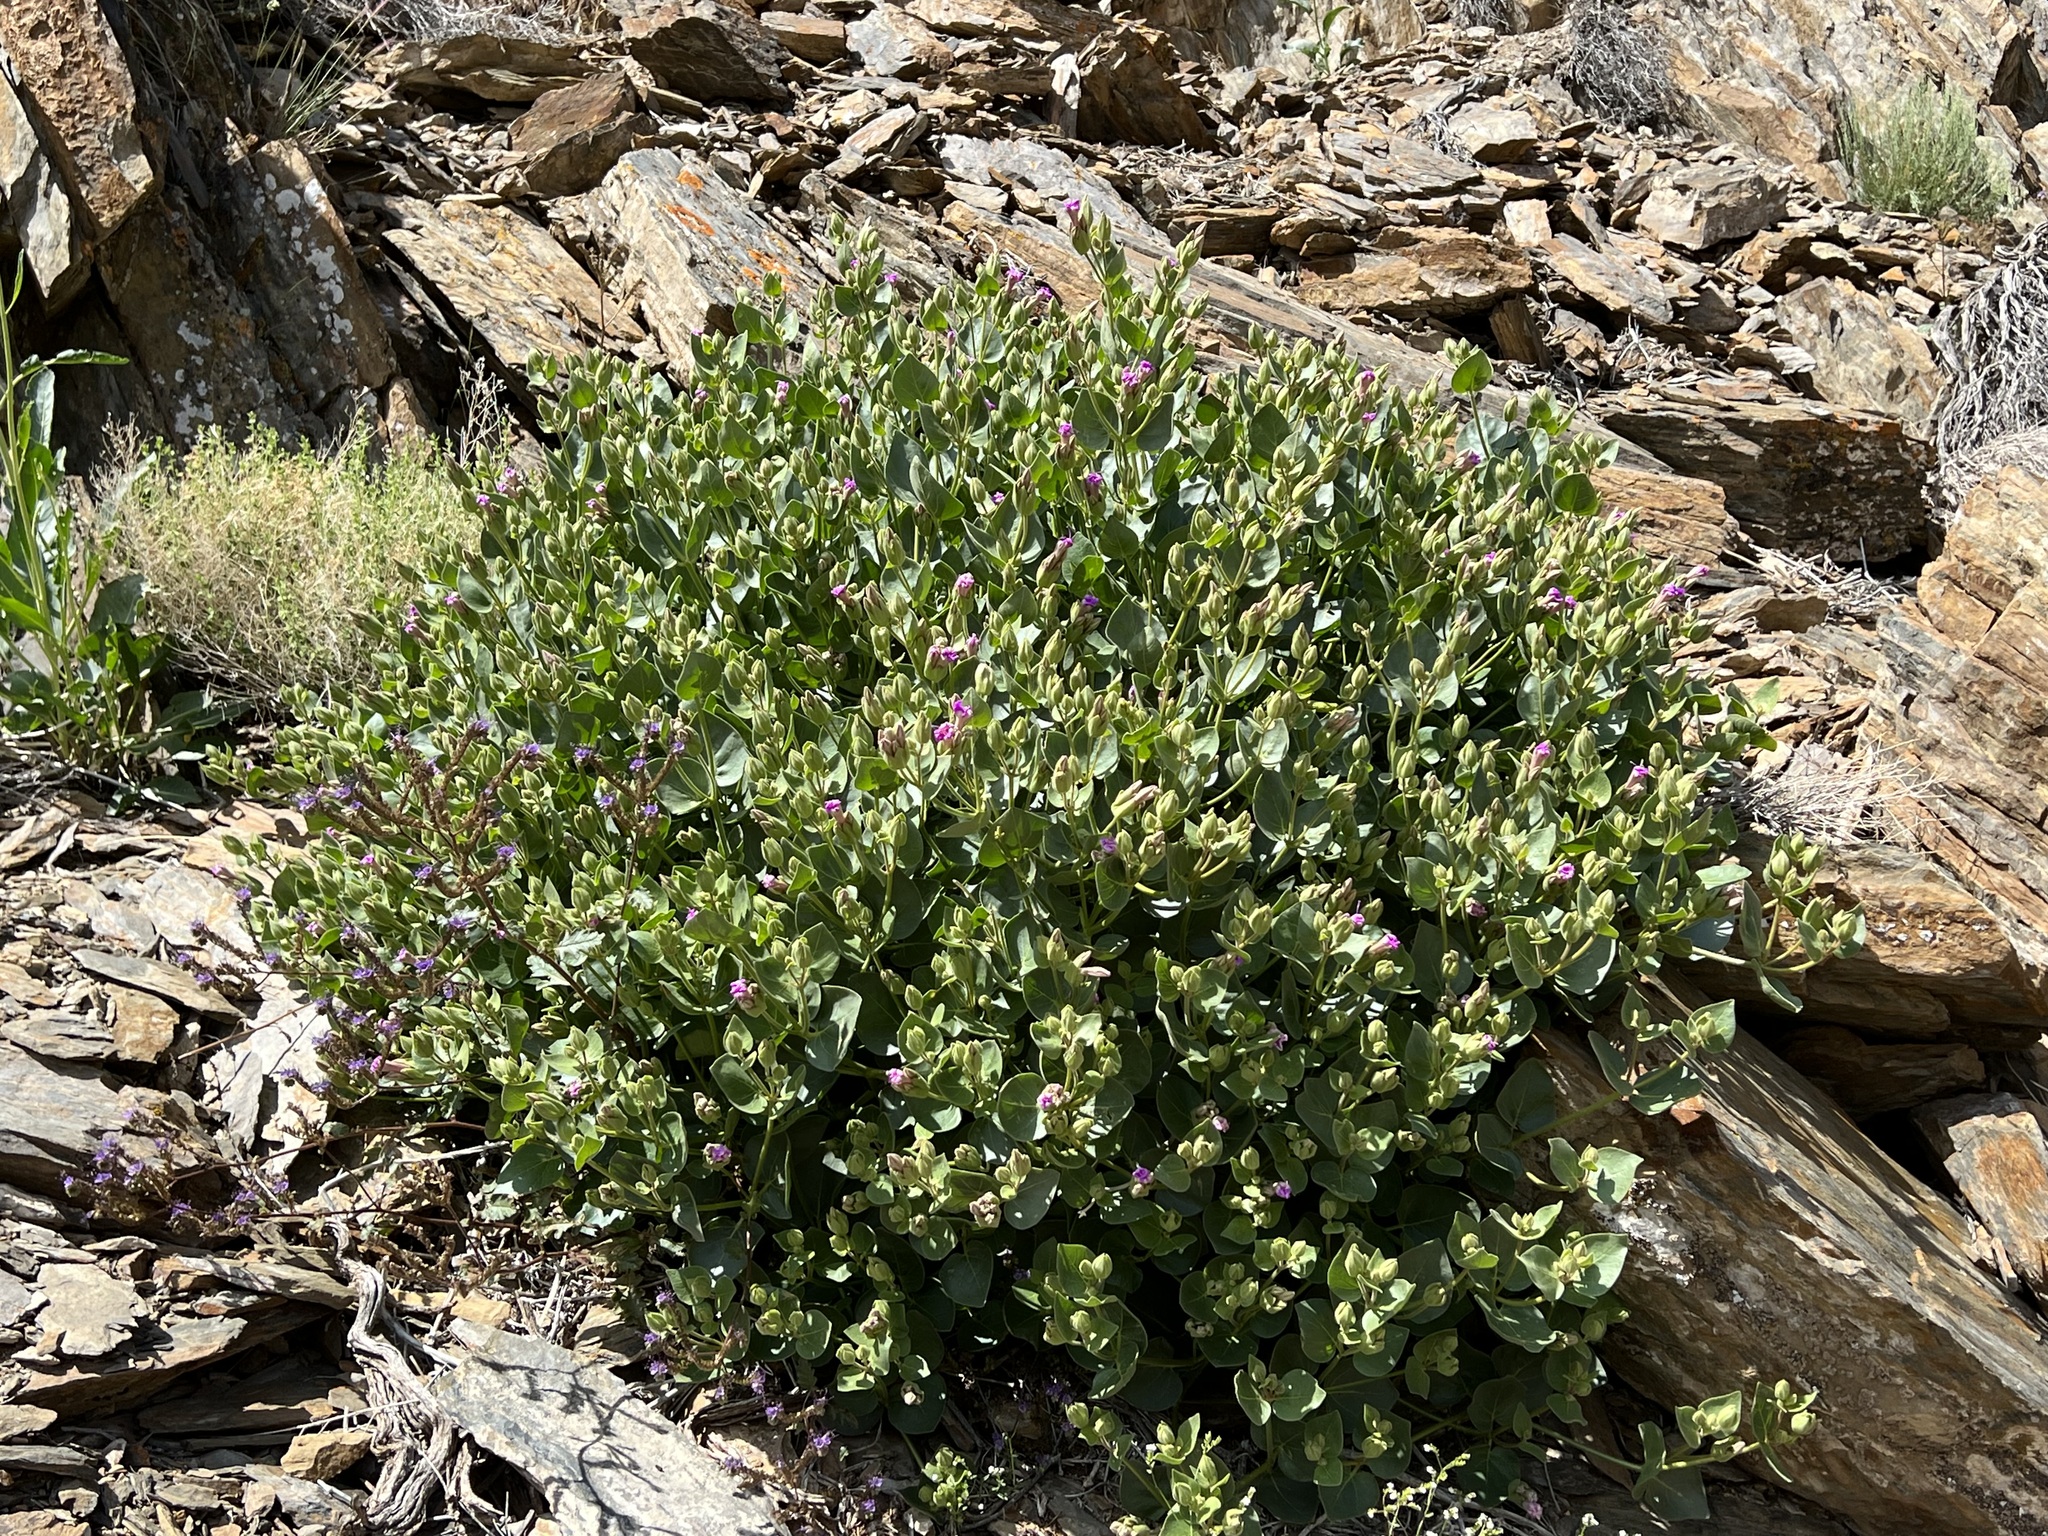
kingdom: Plantae
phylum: Tracheophyta
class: Magnoliopsida
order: Caryophyllales
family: Nyctaginaceae
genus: Mirabilis
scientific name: Mirabilis multiflora
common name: Froebel's four-o'clock
